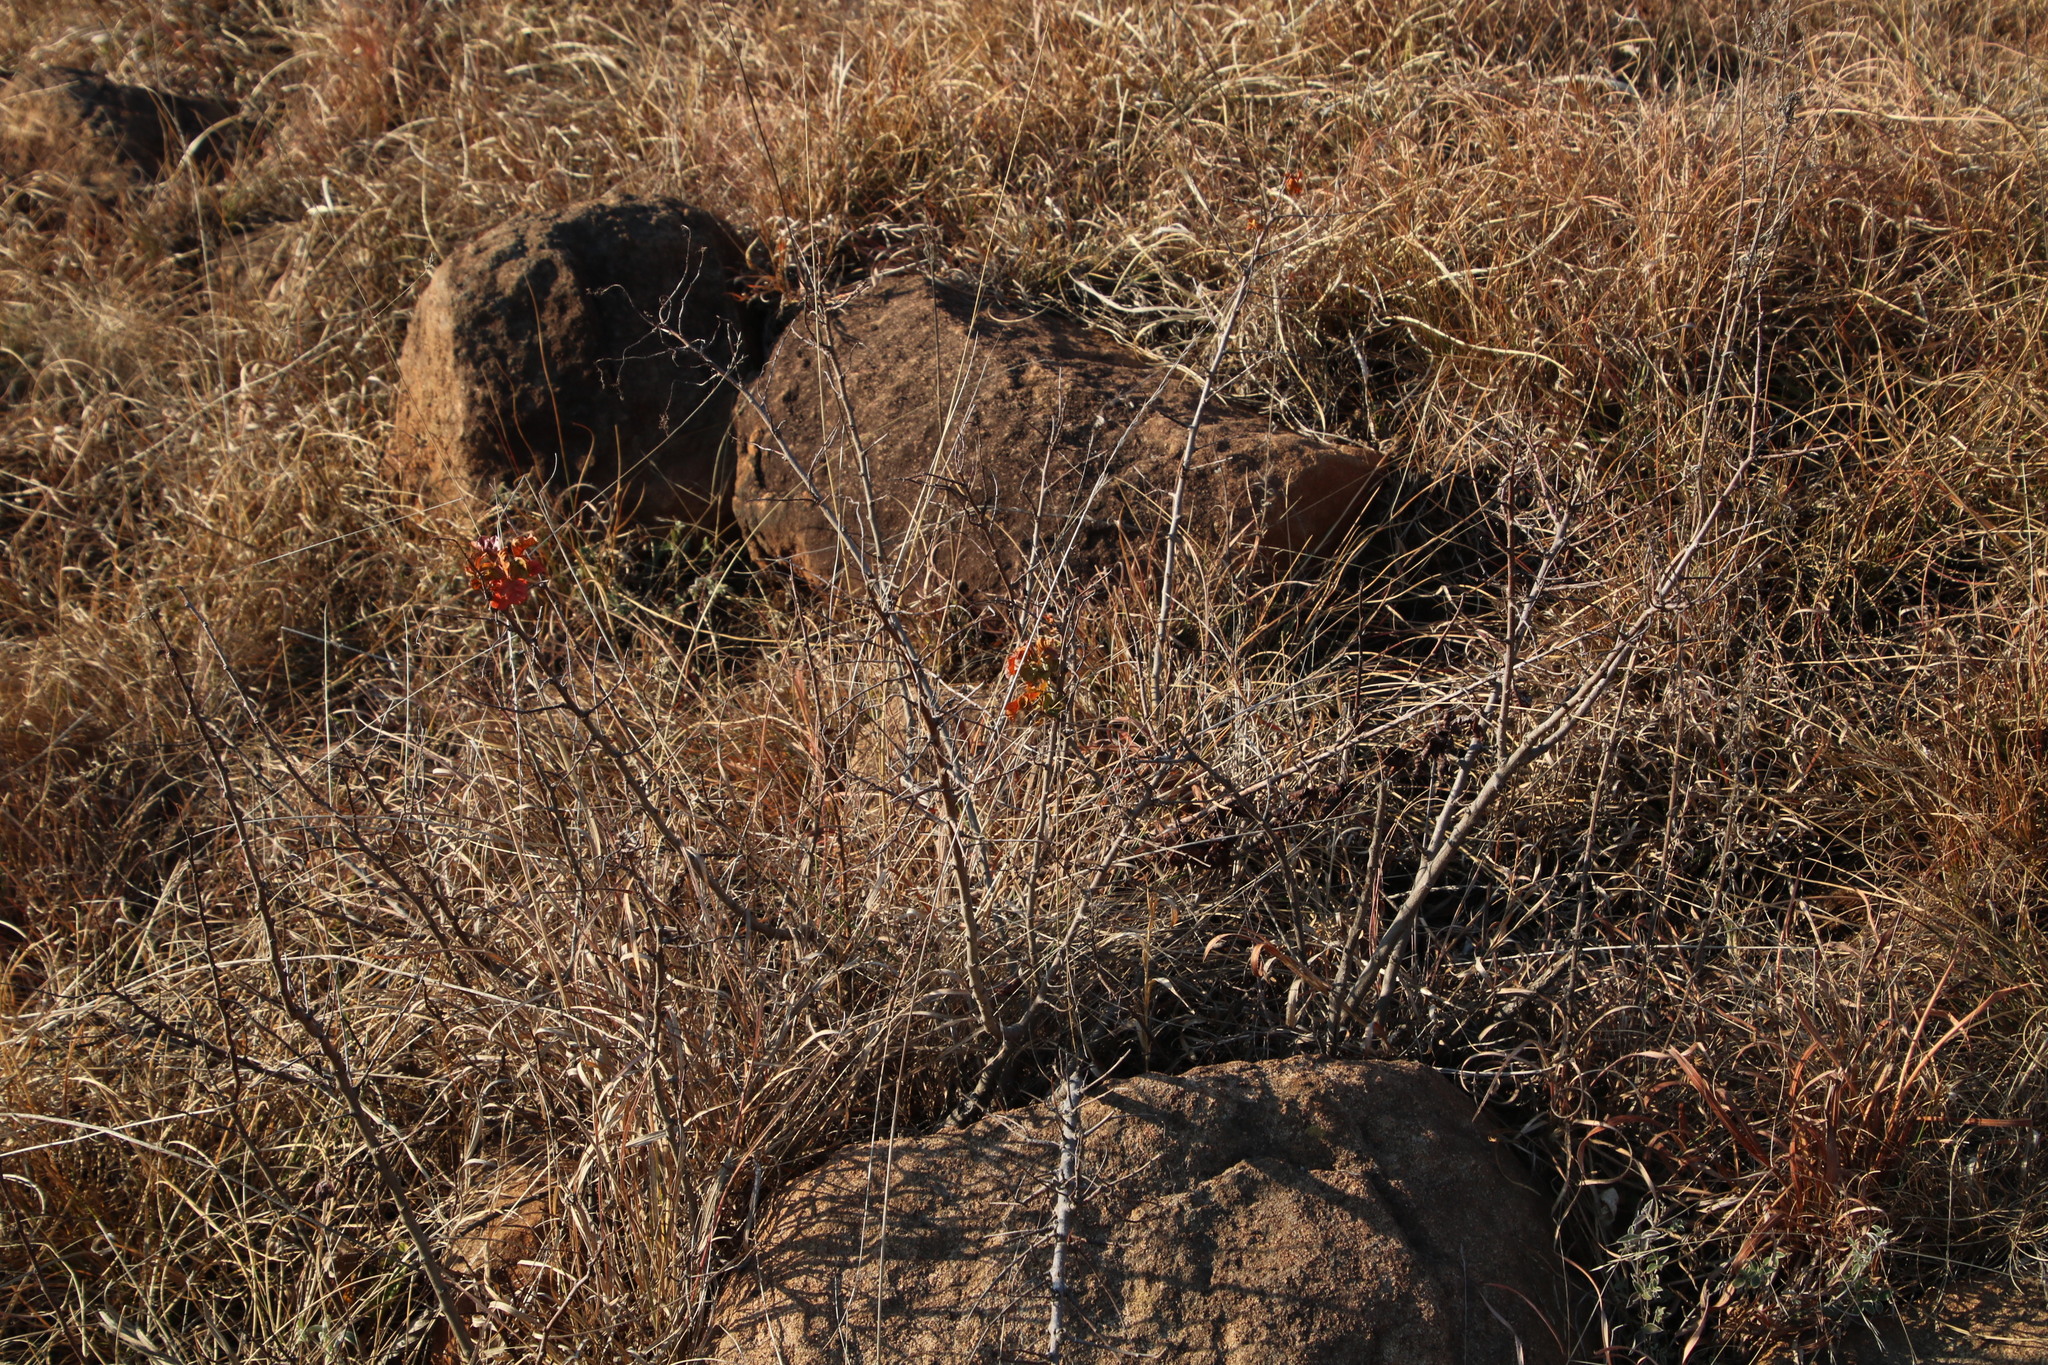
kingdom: Plantae
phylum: Tracheophyta
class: Magnoliopsida
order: Sapindales
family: Anacardiaceae
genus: Searsia
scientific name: Searsia dentata
